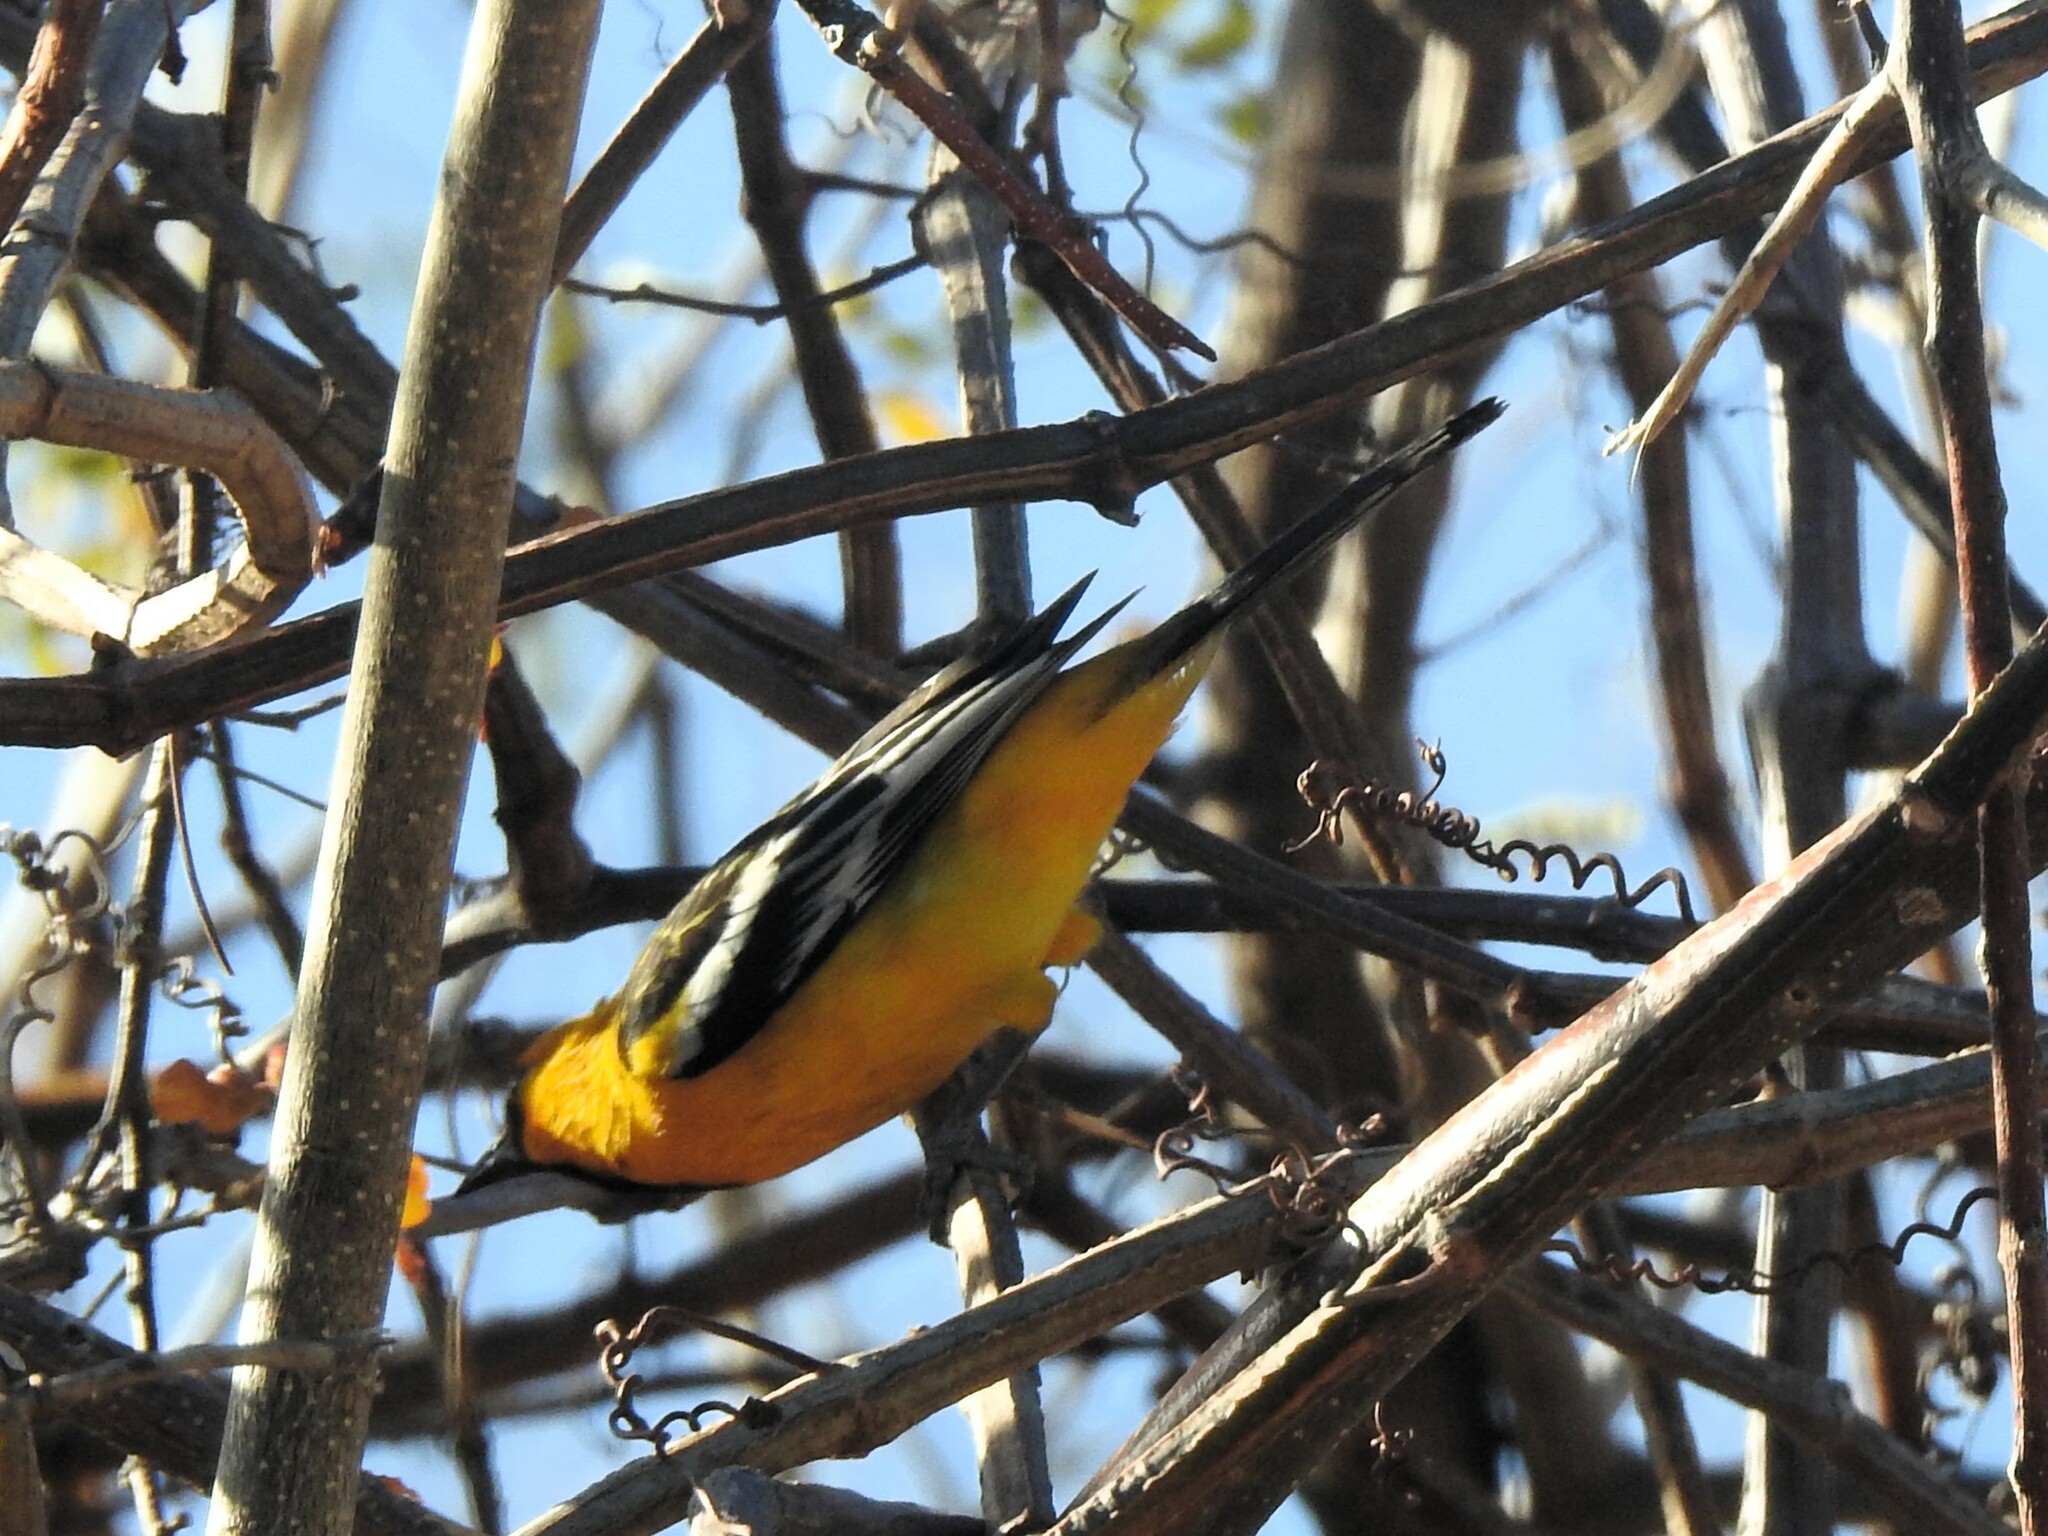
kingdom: Animalia
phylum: Chordata
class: Aves
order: Passeriformes
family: Icteridae
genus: Icterus
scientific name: Icterus pustulatus
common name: Streak-backed oriole
